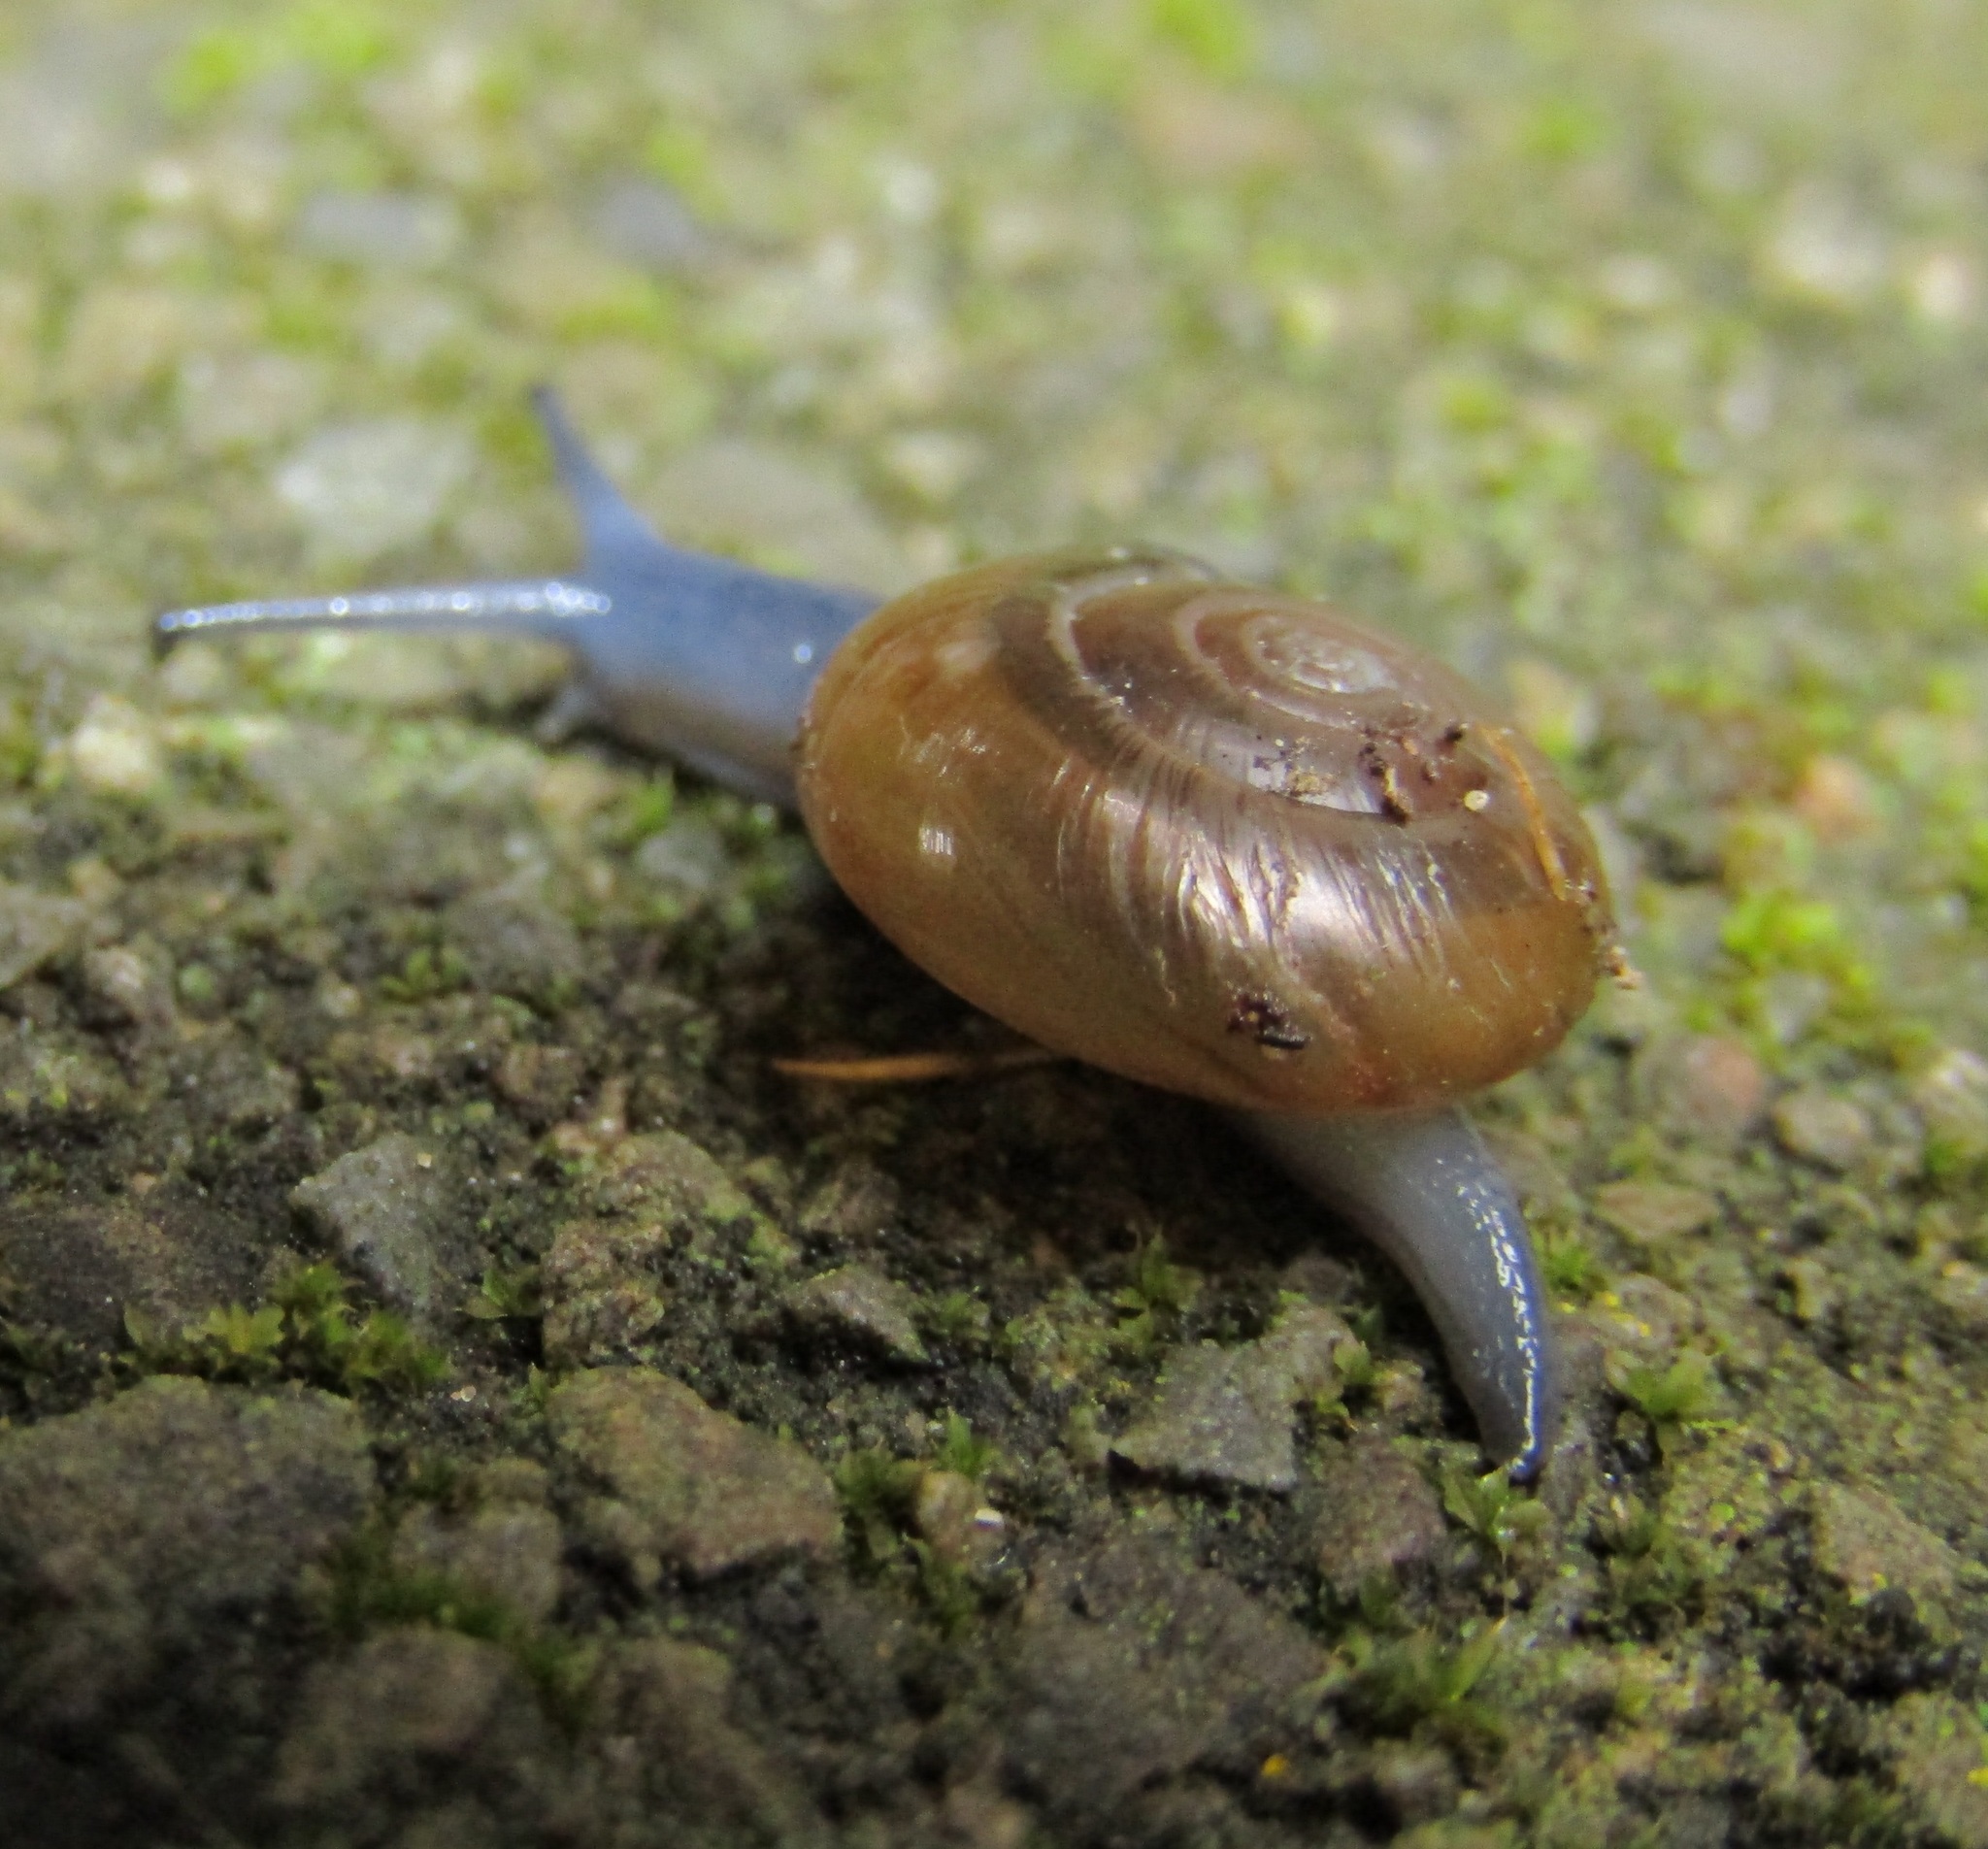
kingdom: Animalia
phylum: Mollusca
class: Gastropoda
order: Stylommatophora
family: Oxychilidae
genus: Oxychilus
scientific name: Oxychilus draparnaudi
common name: Draparnaud's glass snail
